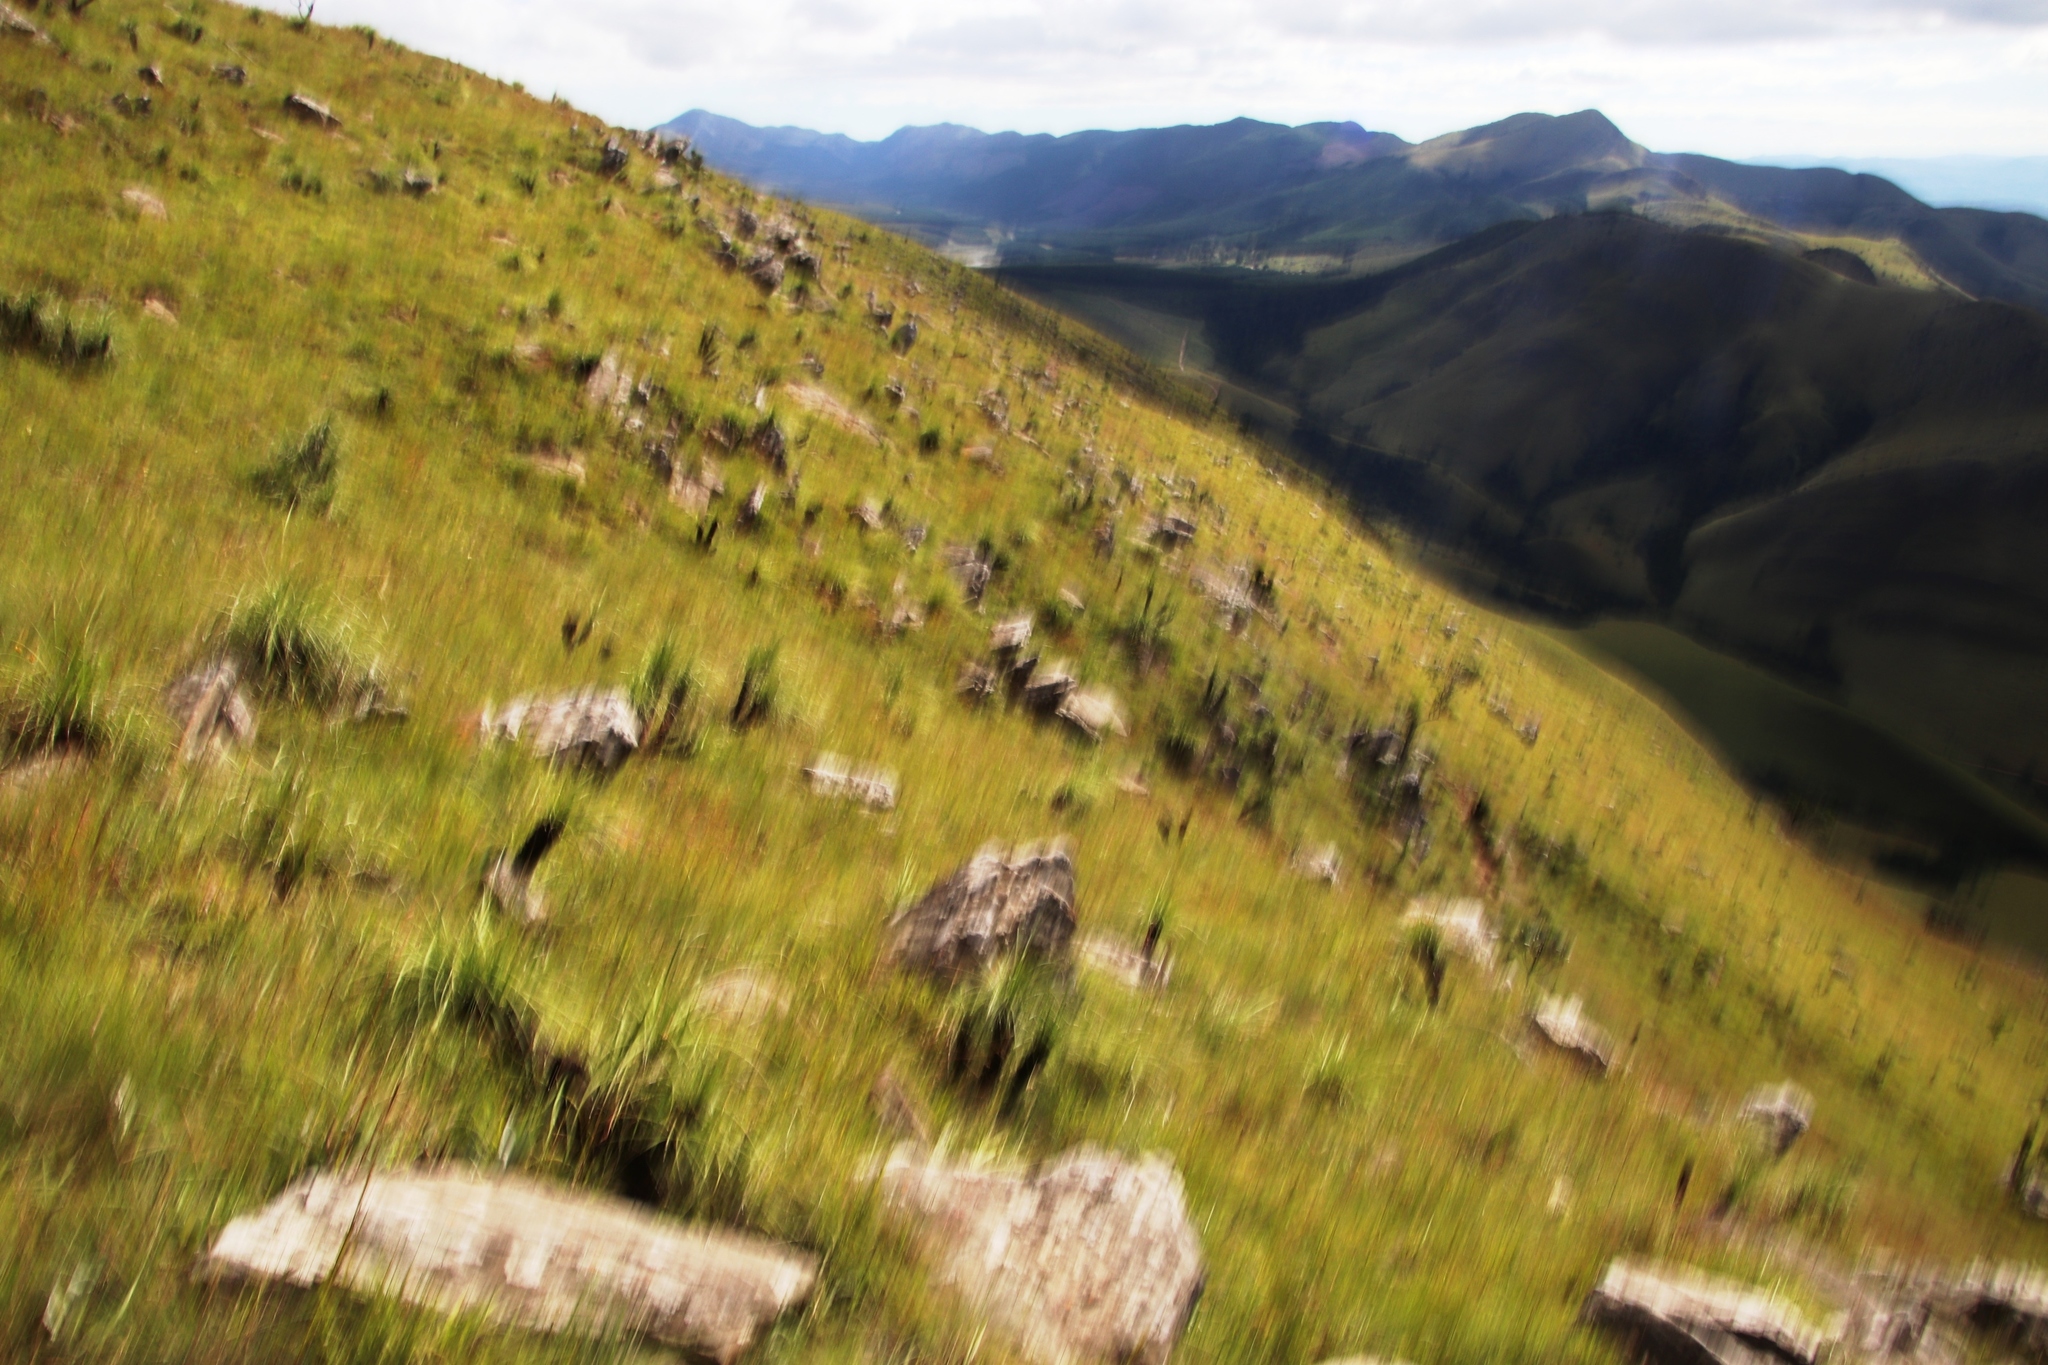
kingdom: Plantae
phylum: Tracheophyta
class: Liliopsida
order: Pandanales
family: Velloziaceae
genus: Xerophyta
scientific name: Xerophyta retinervis
